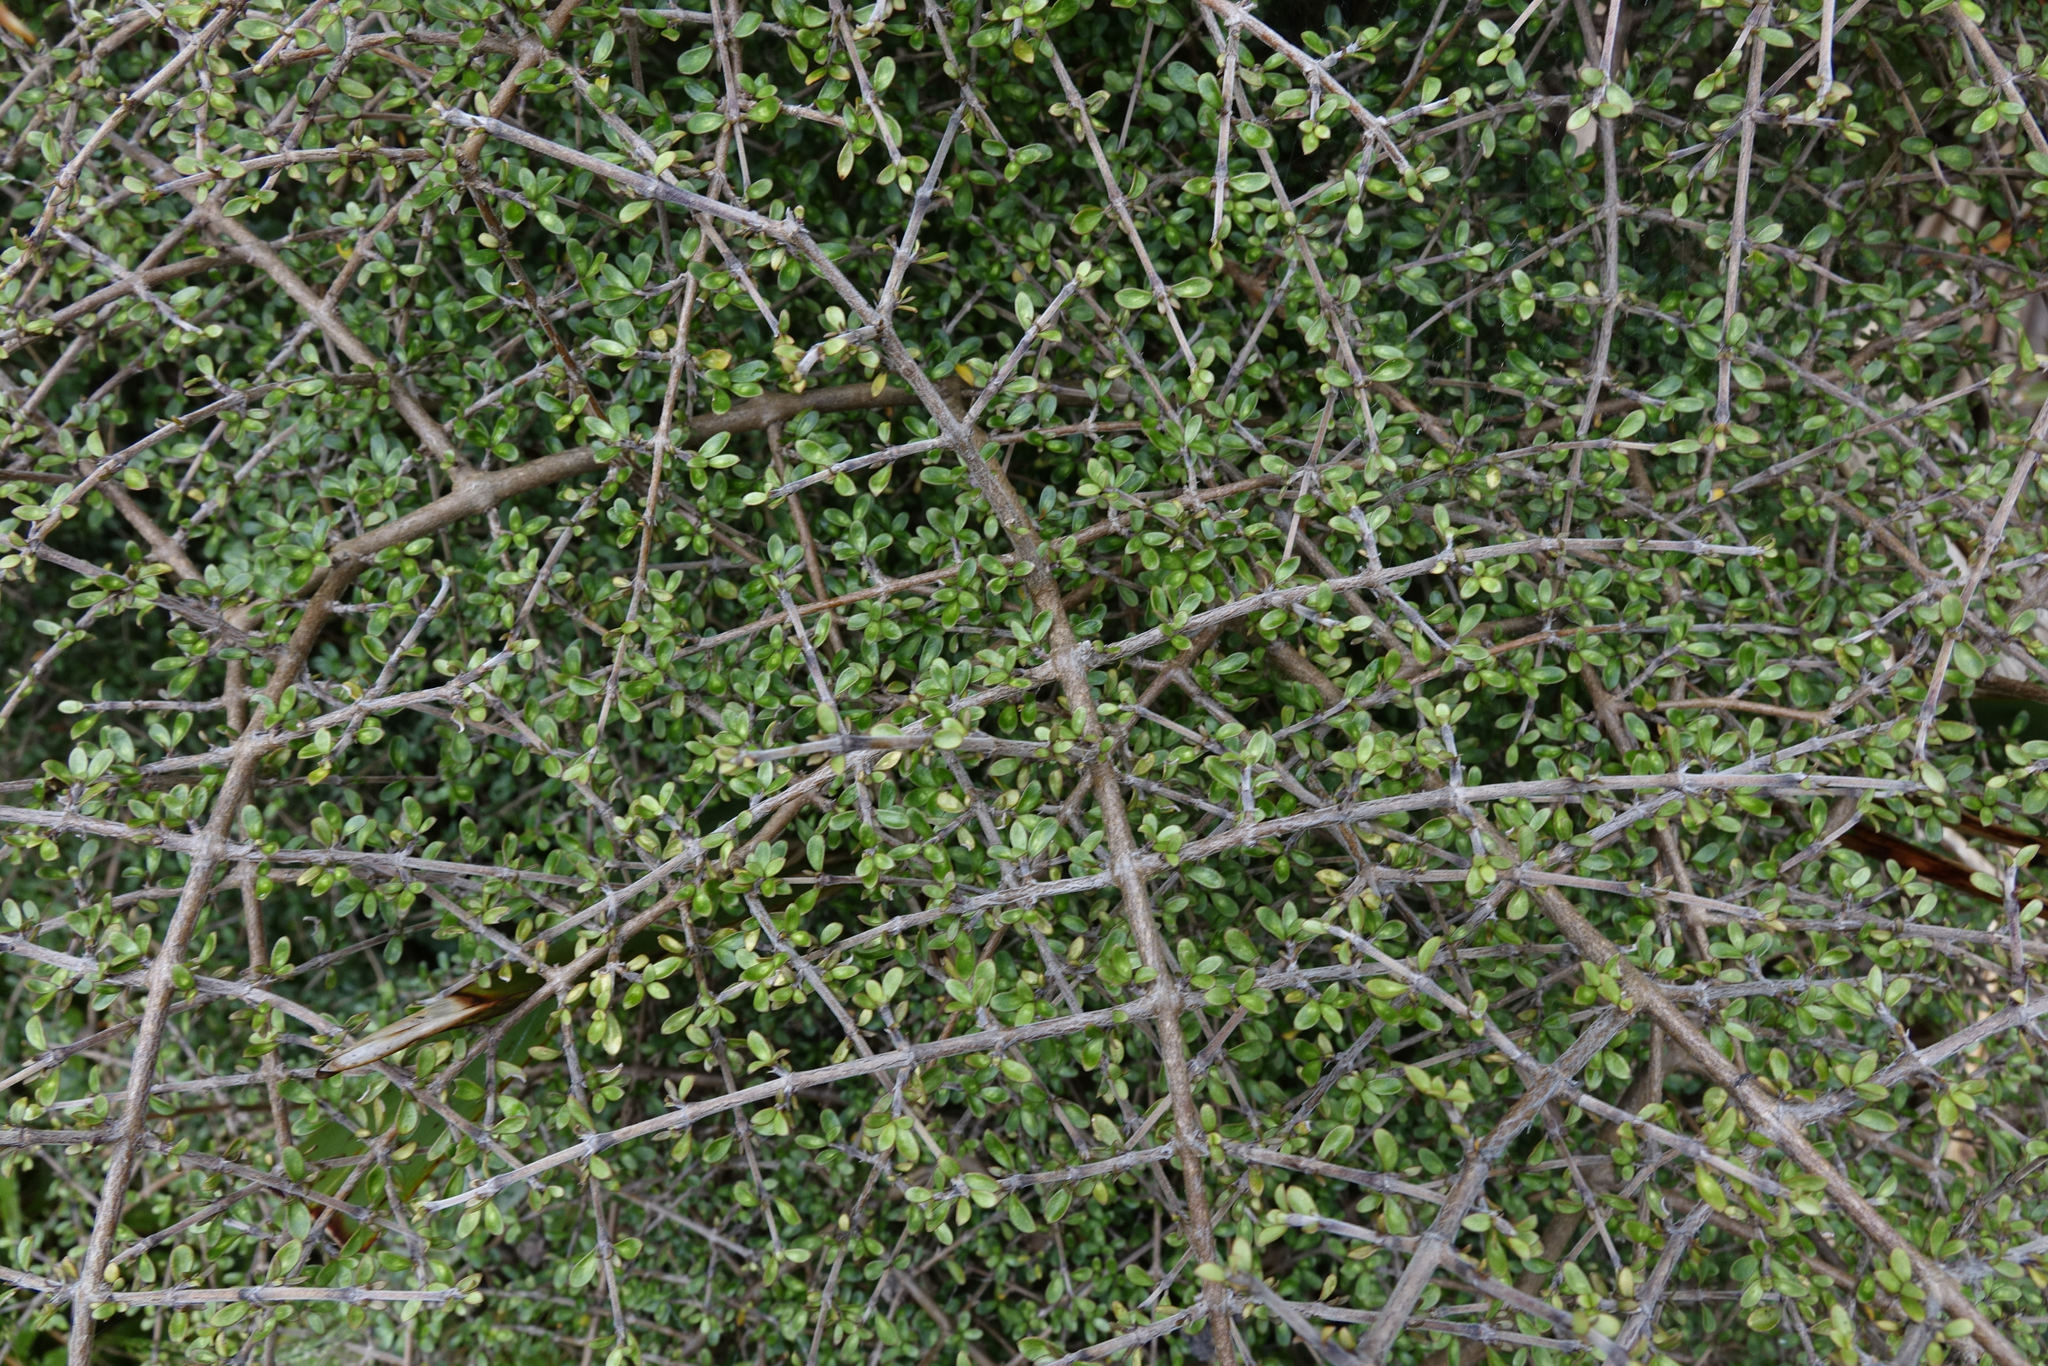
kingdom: Plantae
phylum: Tracheophyta
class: Magnoliopsida
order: Gentianales
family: Rubiaceae
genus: Coprosma
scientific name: Coprosma dumosa
